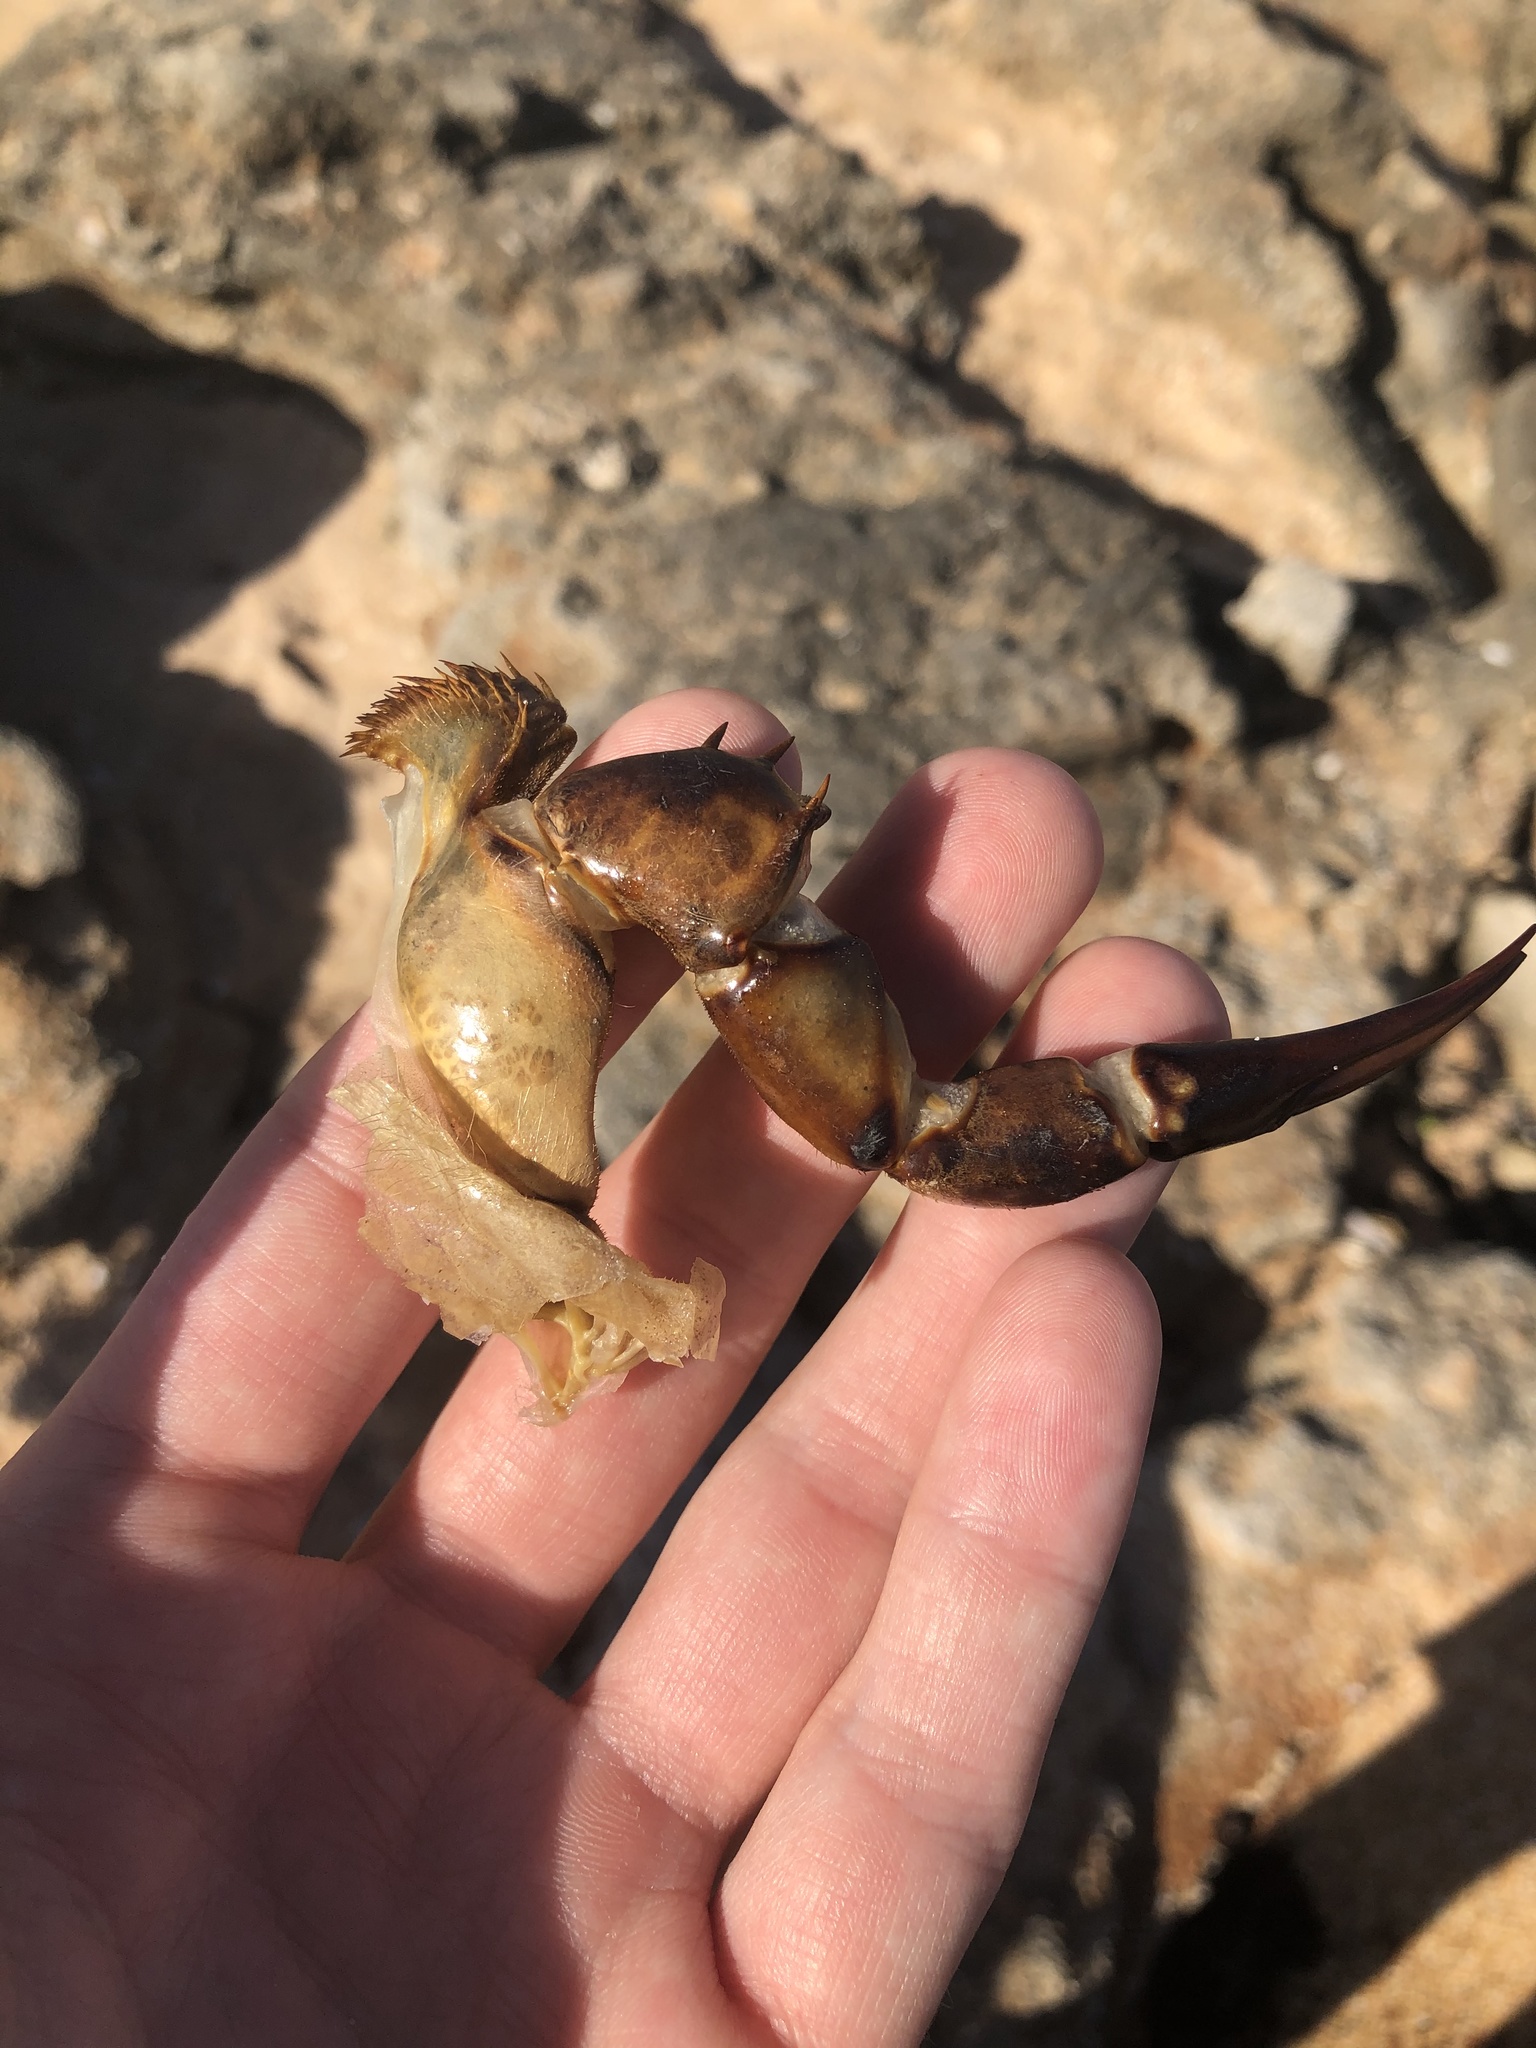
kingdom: Animalia
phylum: Arthropoda
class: Merostomata
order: Xiphosurida
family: Limulidae
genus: Limulus
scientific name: Limulus polyphemus
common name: Horseshoe crab
